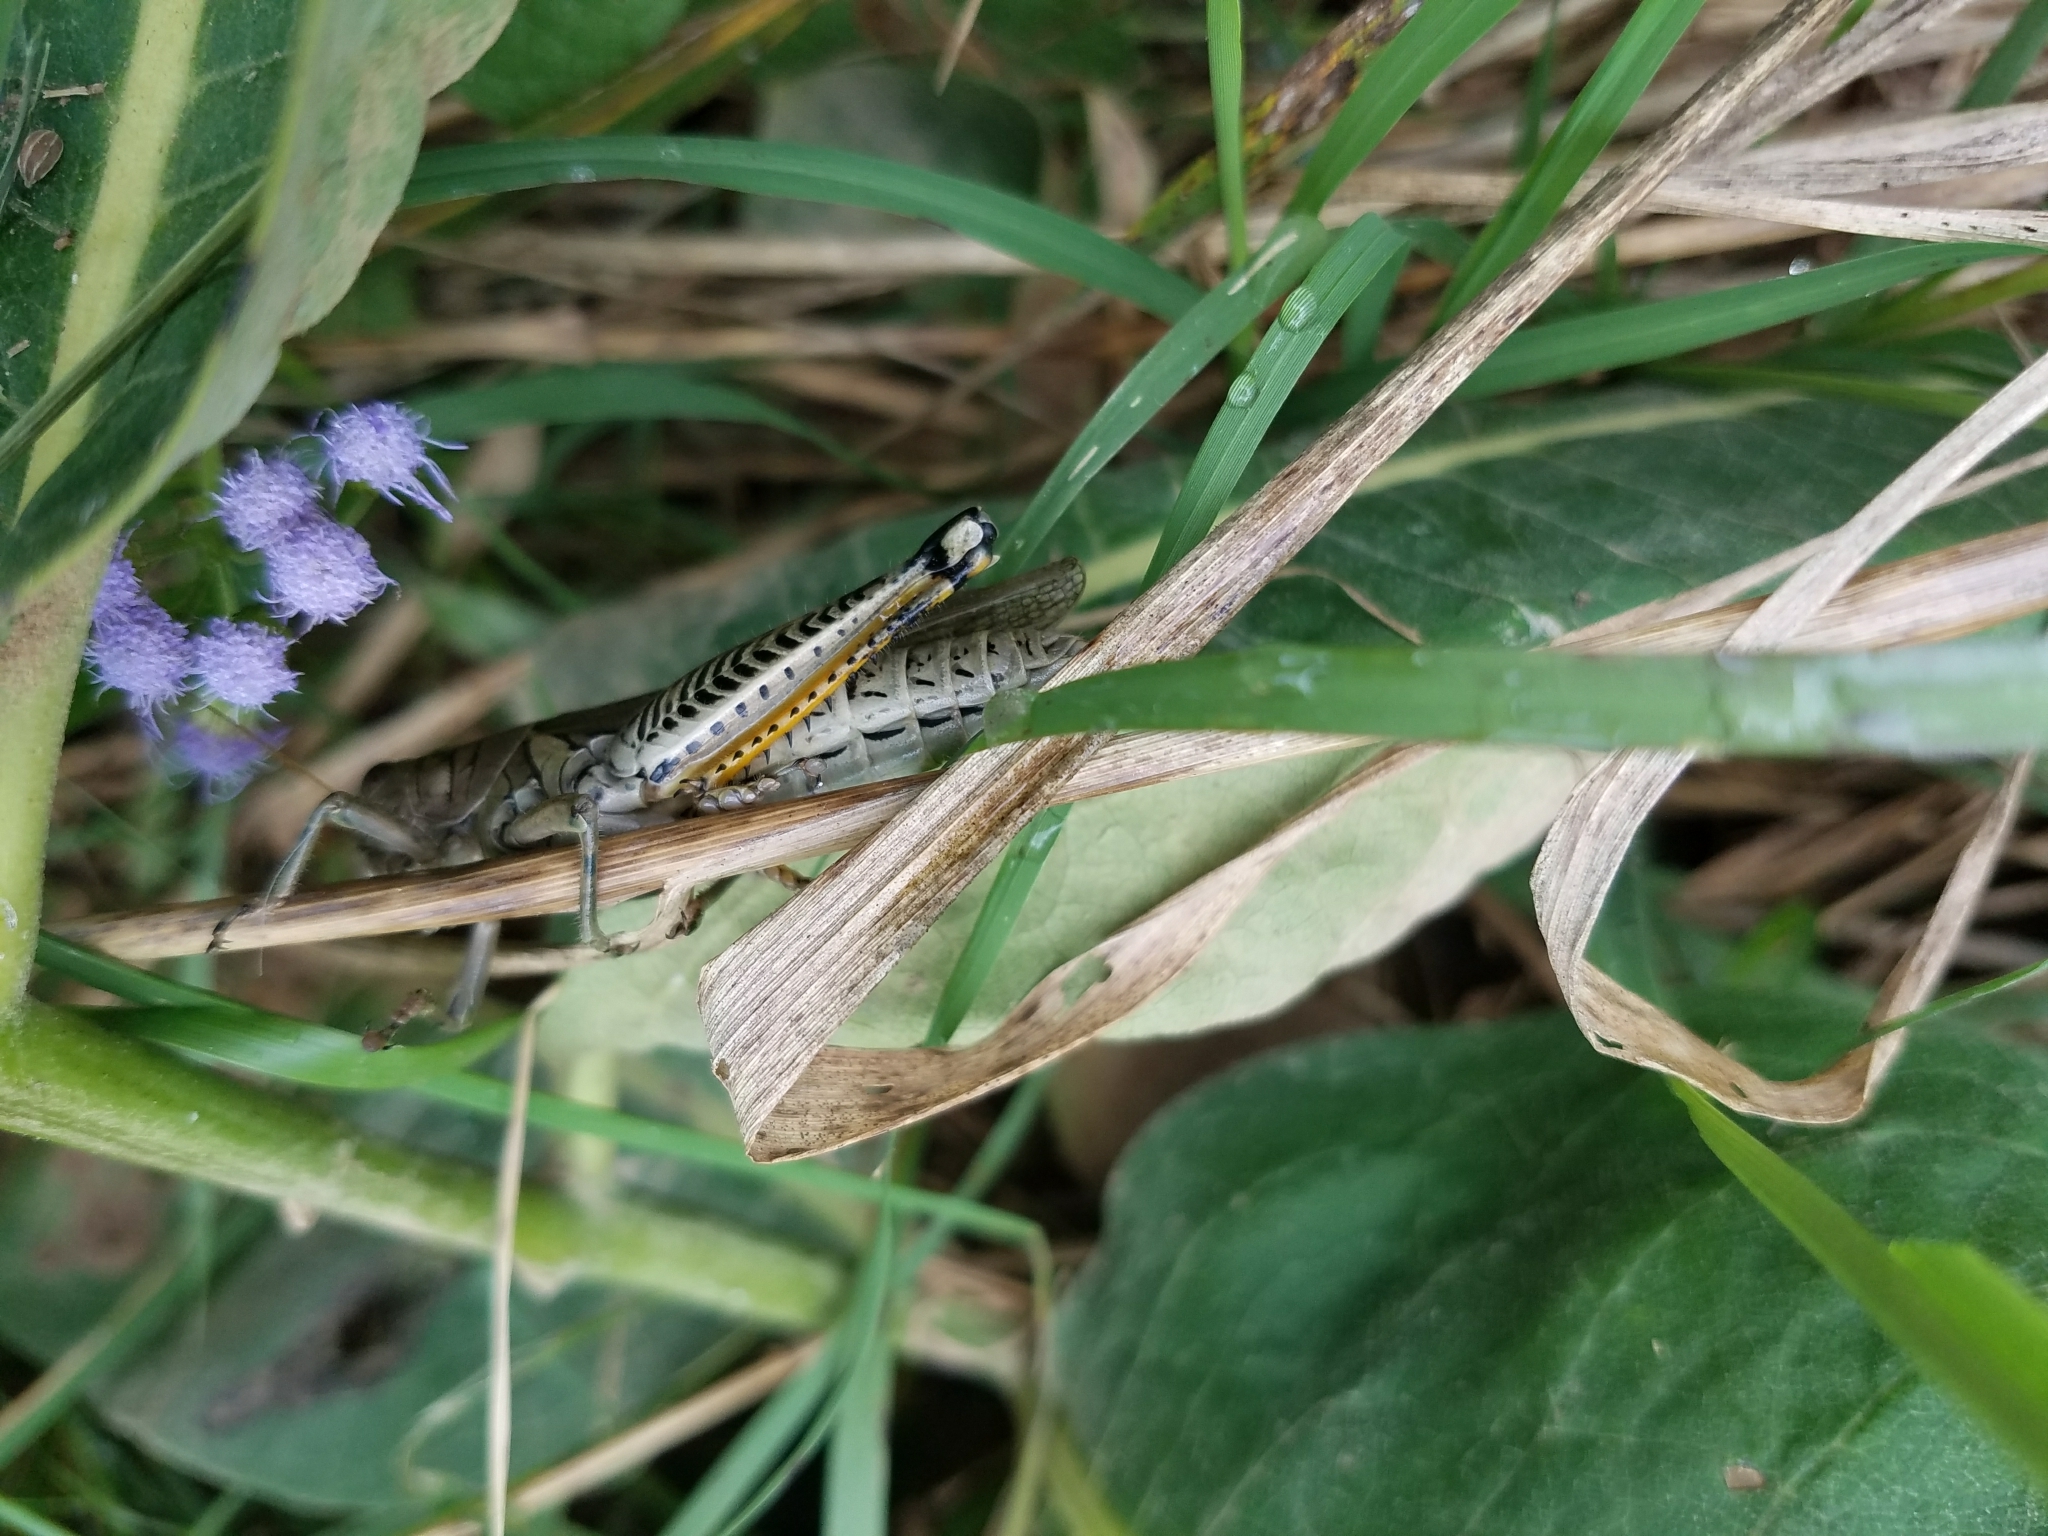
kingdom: Animalia
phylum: Arthropoda
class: Insecta
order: Orthoptera
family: Acrididae
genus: Melanoplus
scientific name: Melanoplus differentialis
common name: Differential grasshopper
